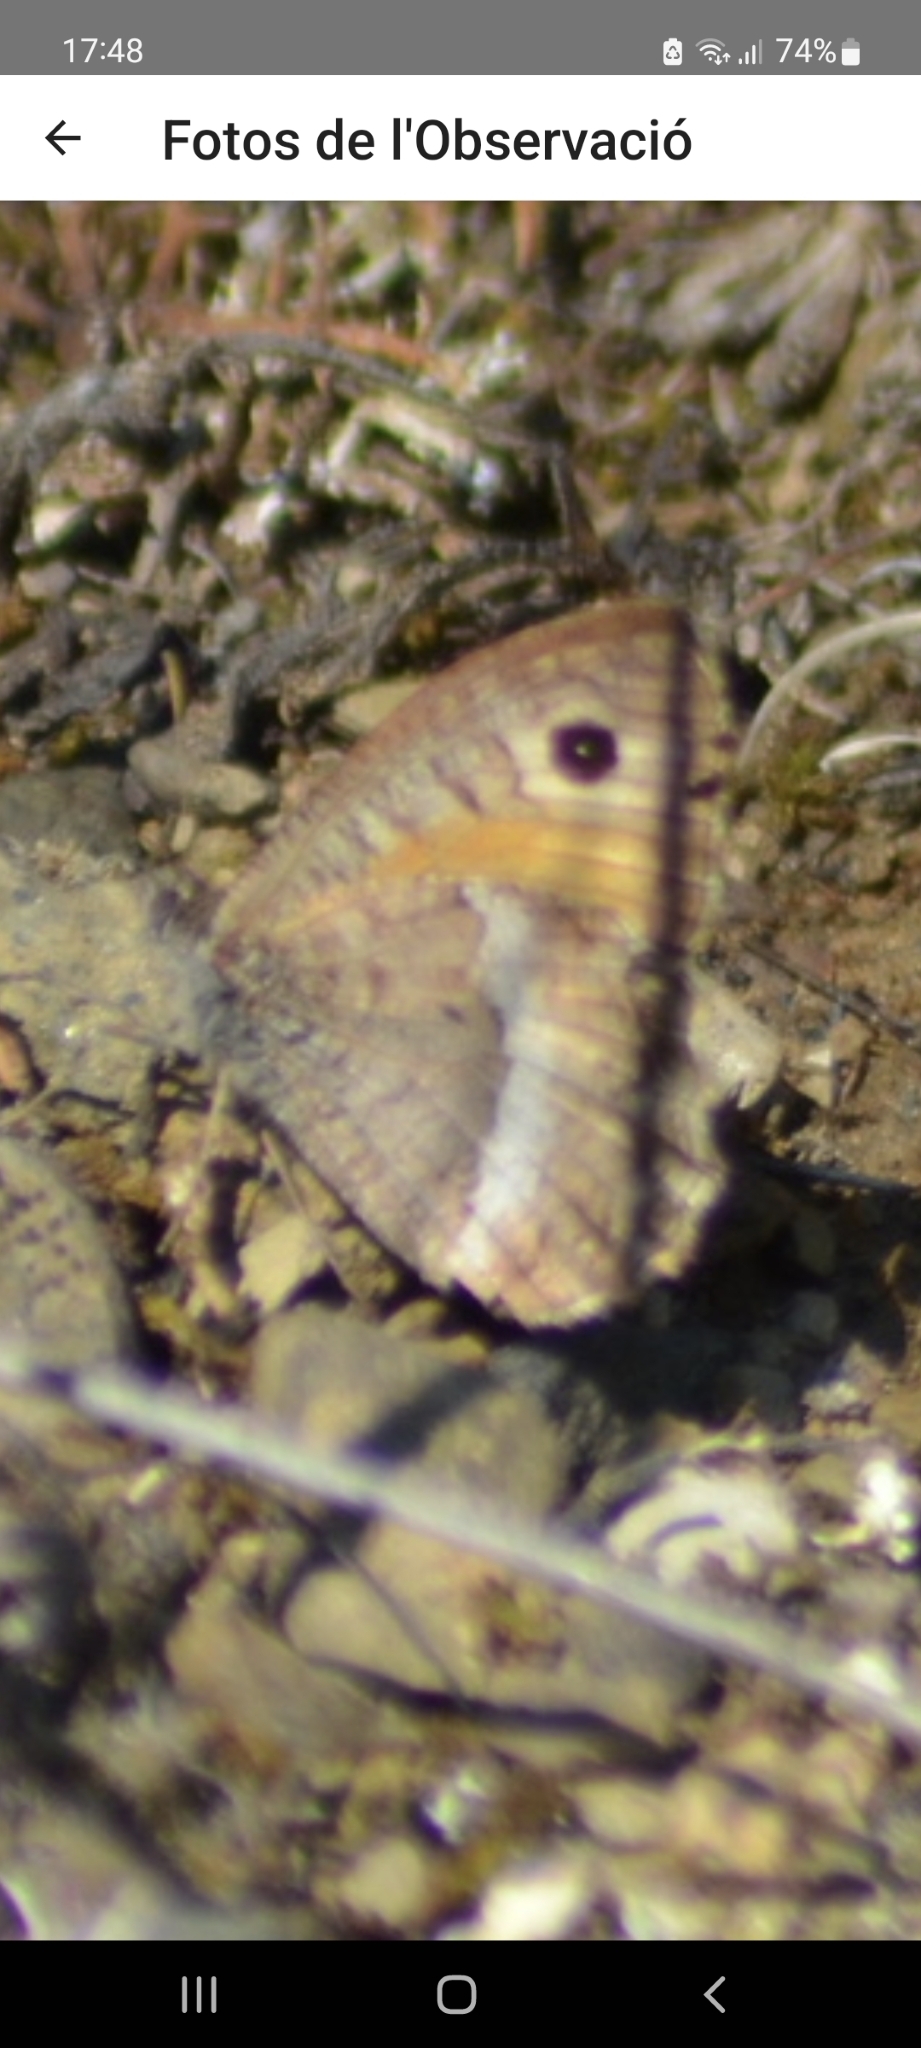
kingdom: Animalia
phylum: Arthropoda
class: Insecta
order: Lepidoptera
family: Nymphalidae
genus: Arethusana
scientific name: Arethusana arethusa
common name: False grayling
